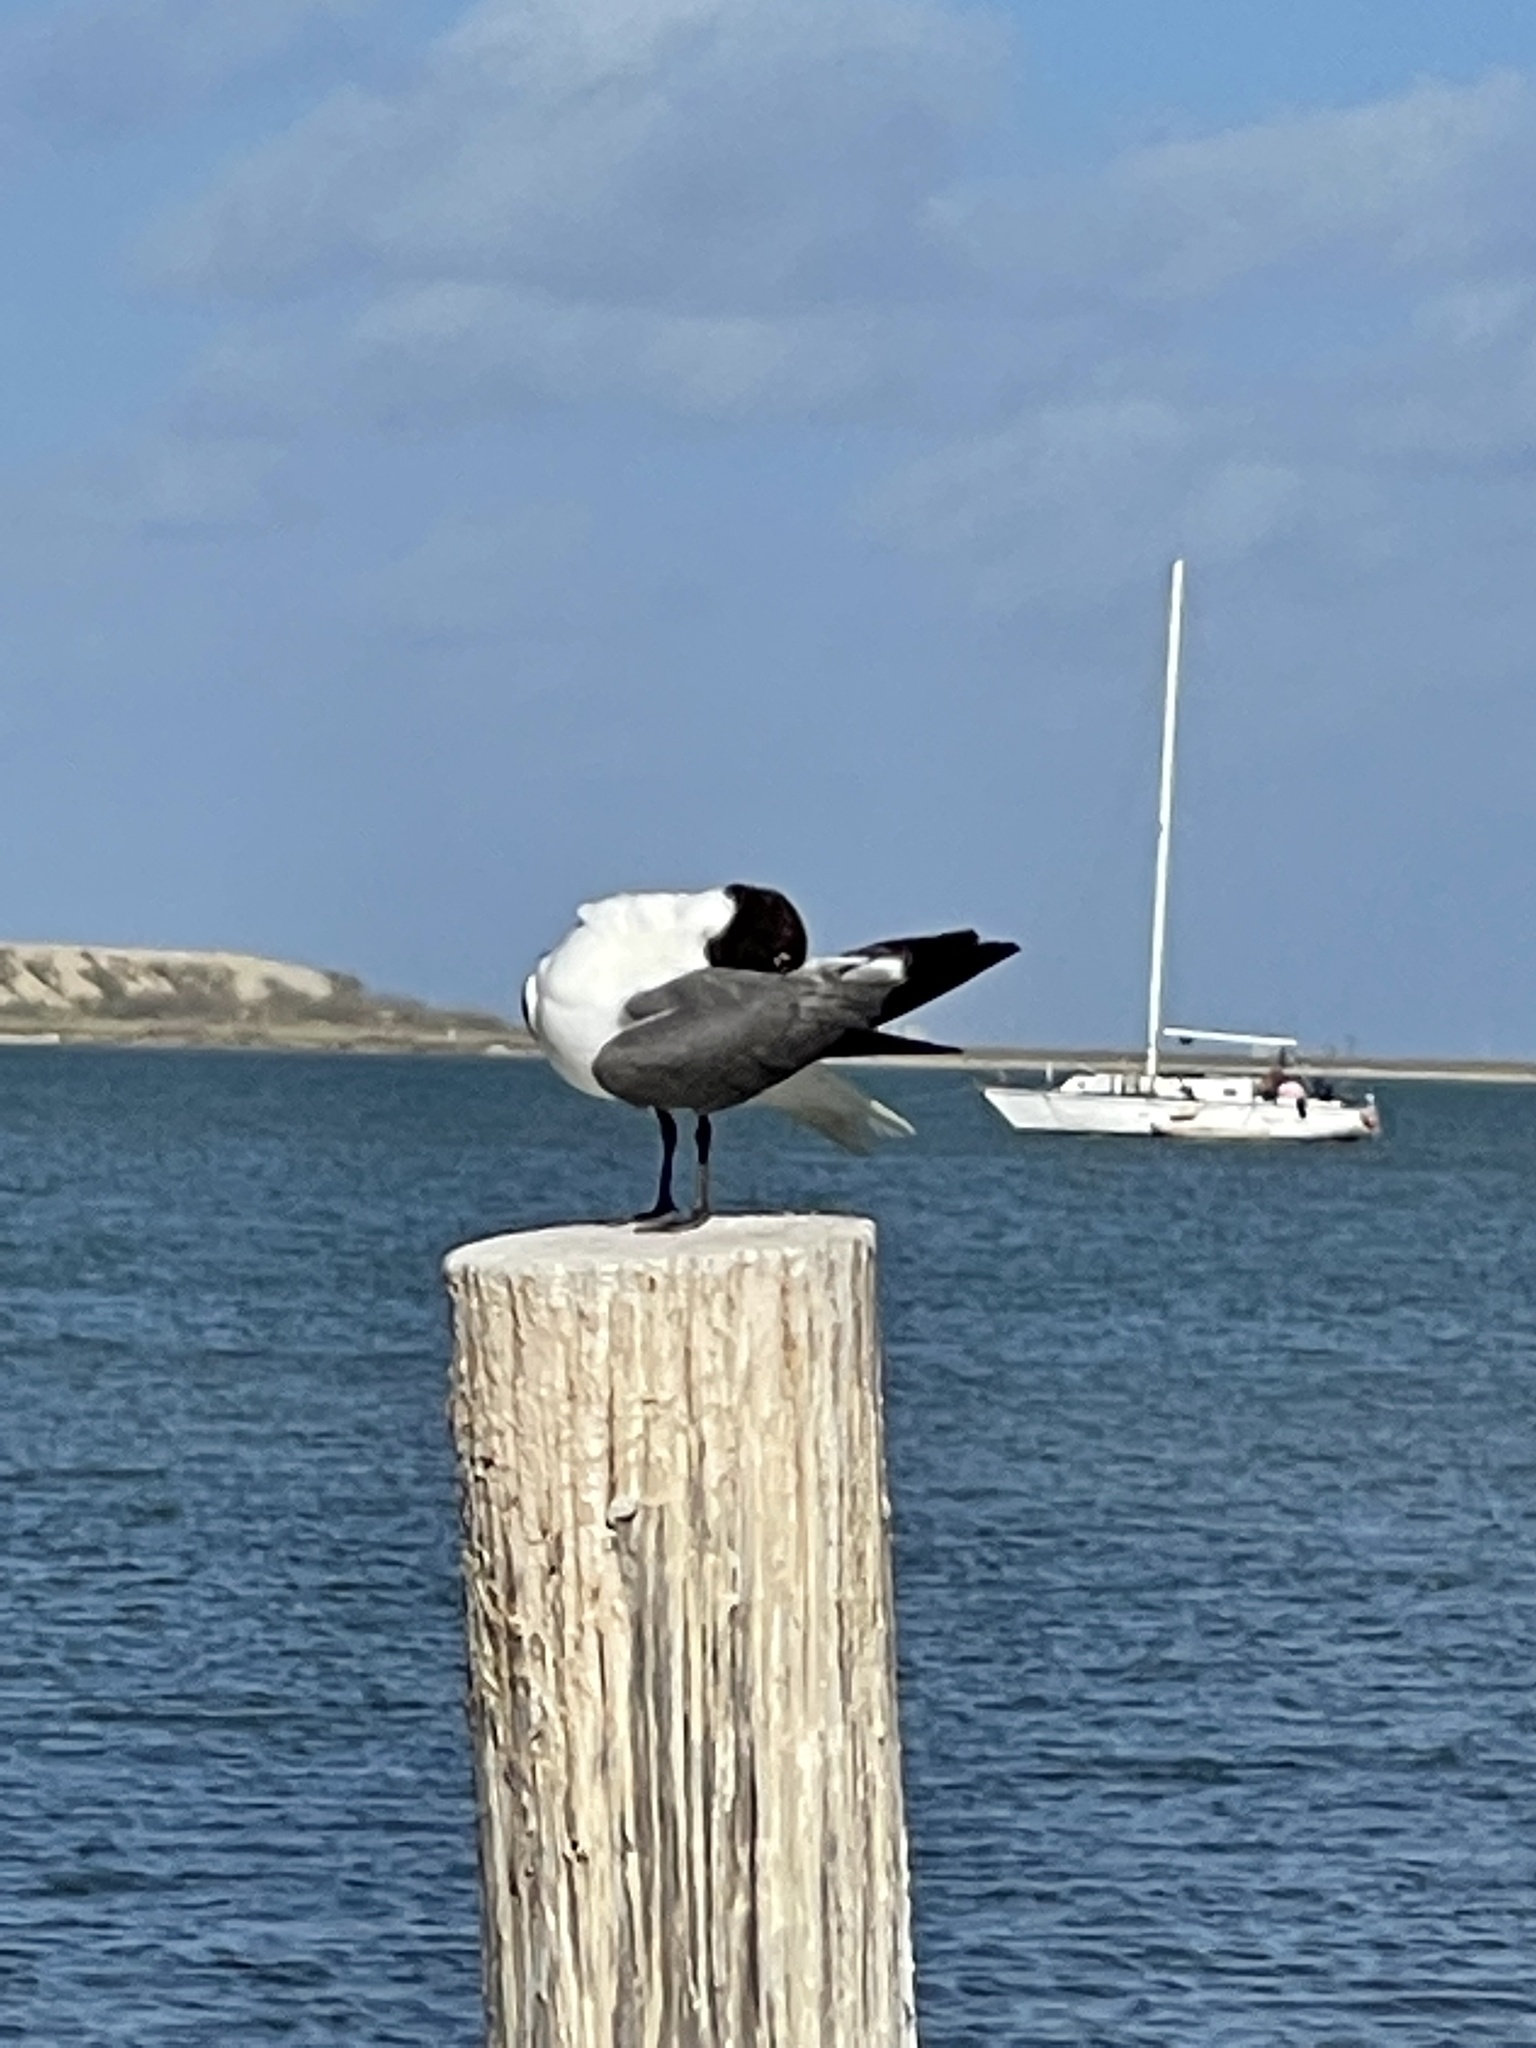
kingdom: Animalia
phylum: Chordata
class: Aves
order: Charadriiformes
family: Laridae
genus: Leucophaeus
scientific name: Leucophaeus atricilla
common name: Laughing gull
